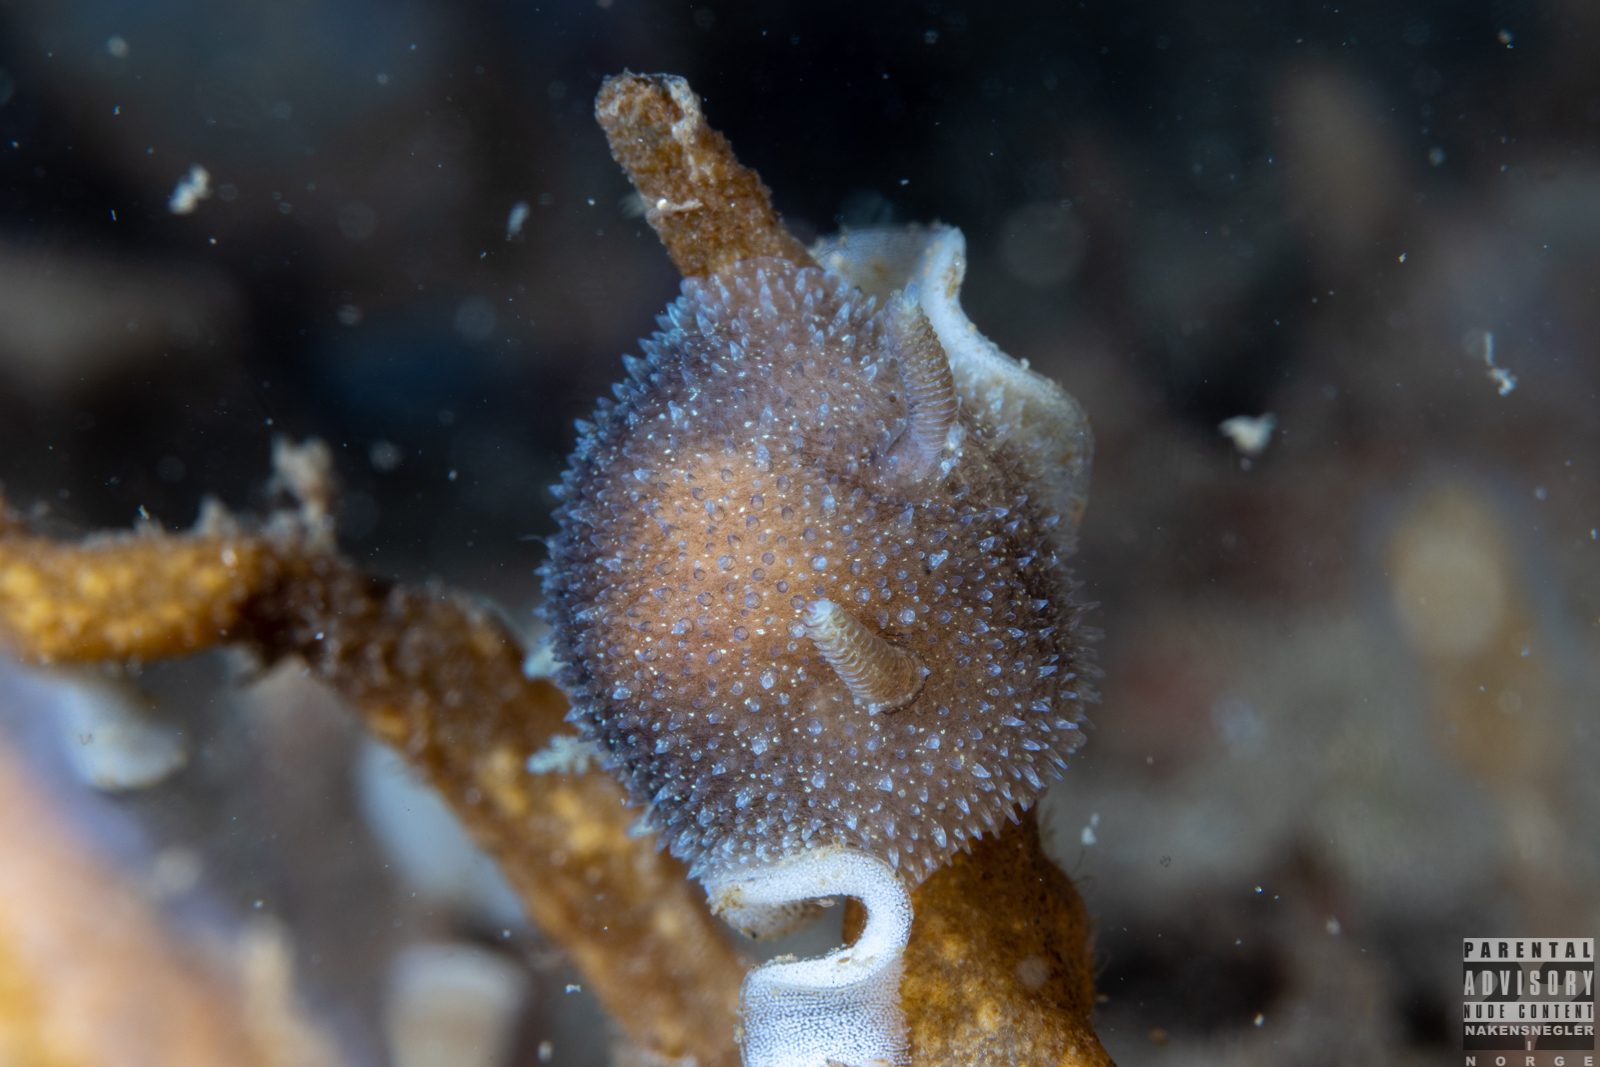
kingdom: Animalia
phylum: Mollusca
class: Gastropoda
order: Nudibranchia
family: Onchidorididae
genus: Acanthodoris
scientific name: Acanthodoris pilosa
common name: Hairy spiny doris
